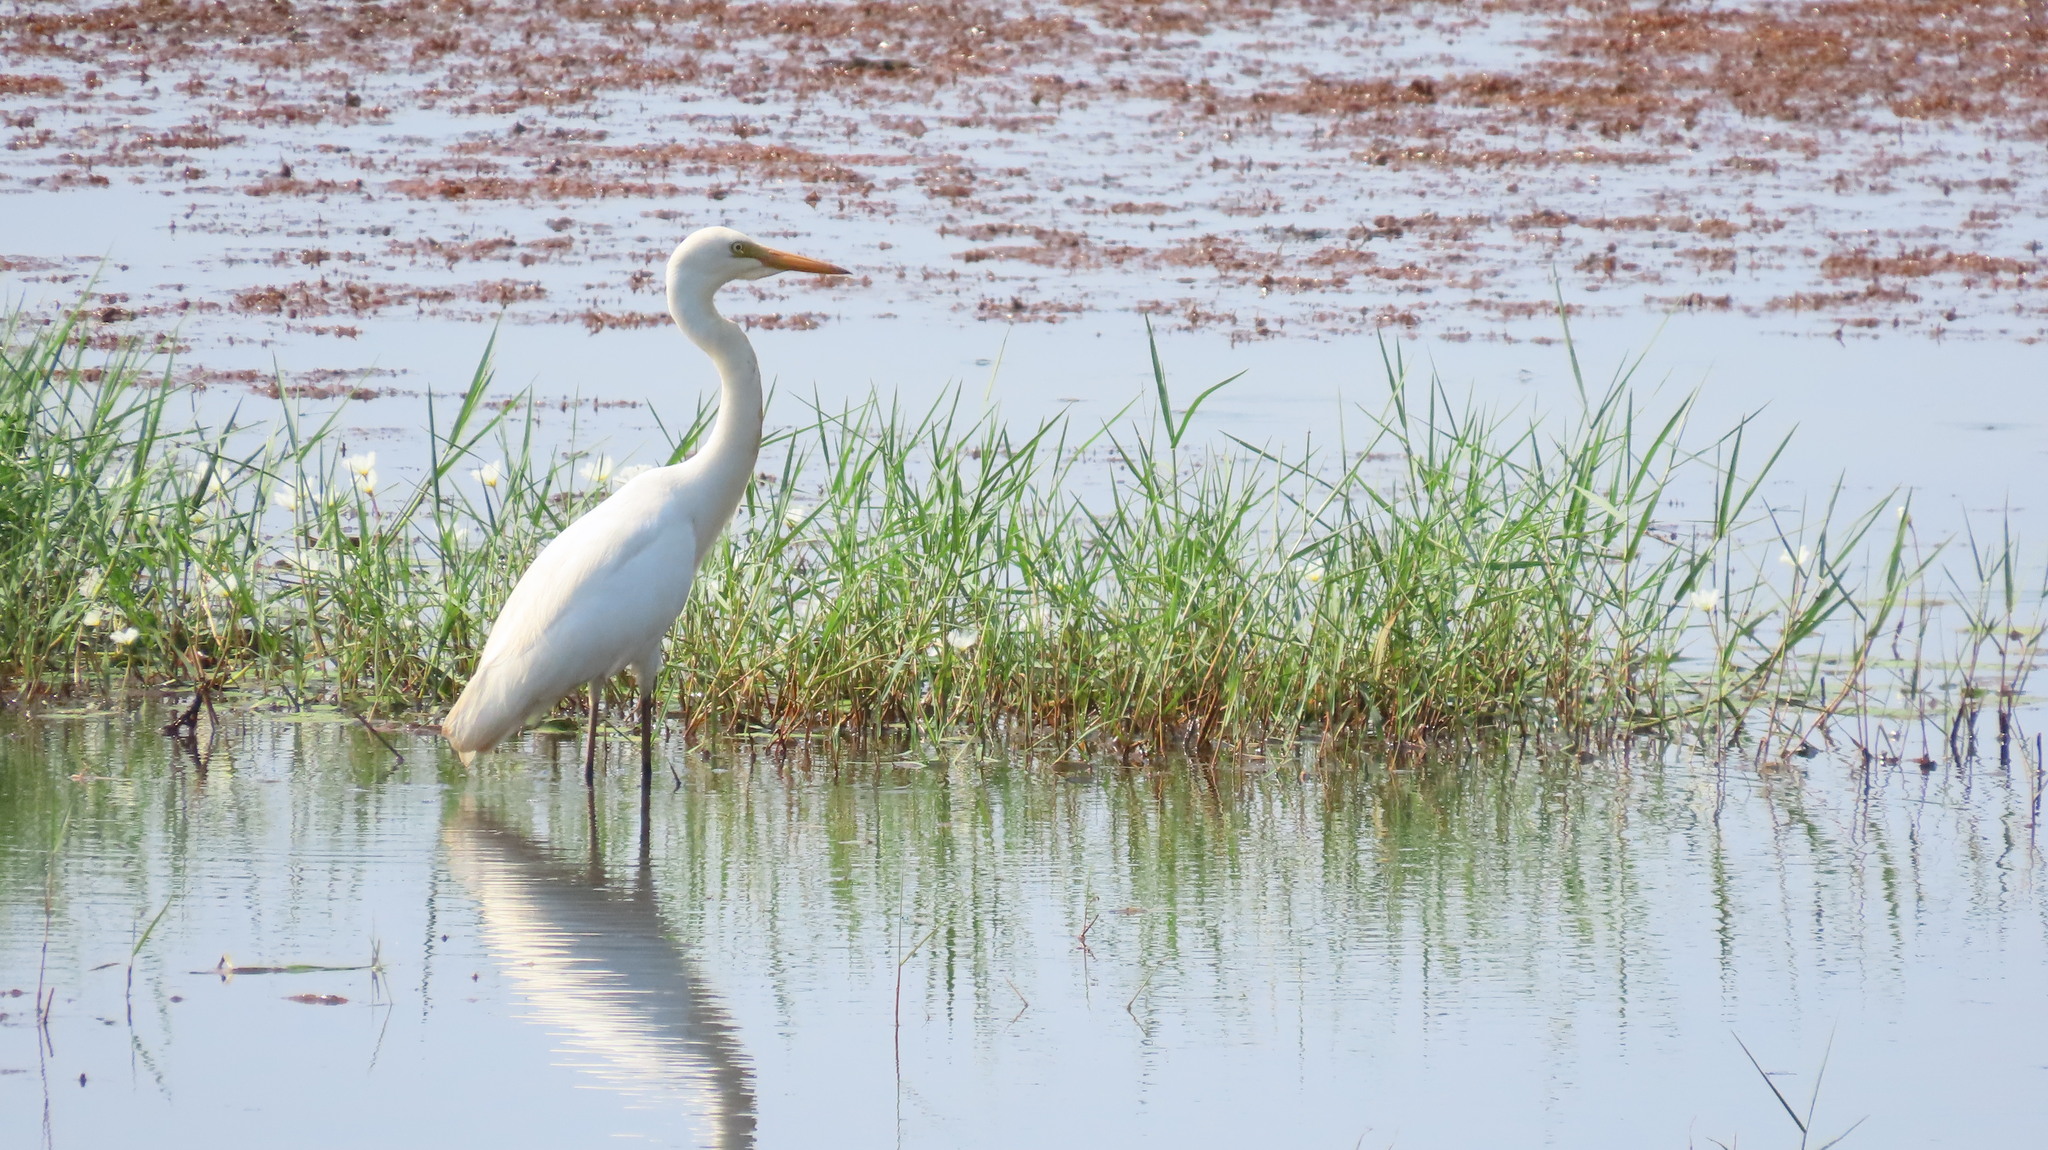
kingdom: Animalia
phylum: Chordata
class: Aves
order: Pelecaniformes
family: Ardeidae
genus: Egretta
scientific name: Egretta intermedia
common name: Intermediate egret
